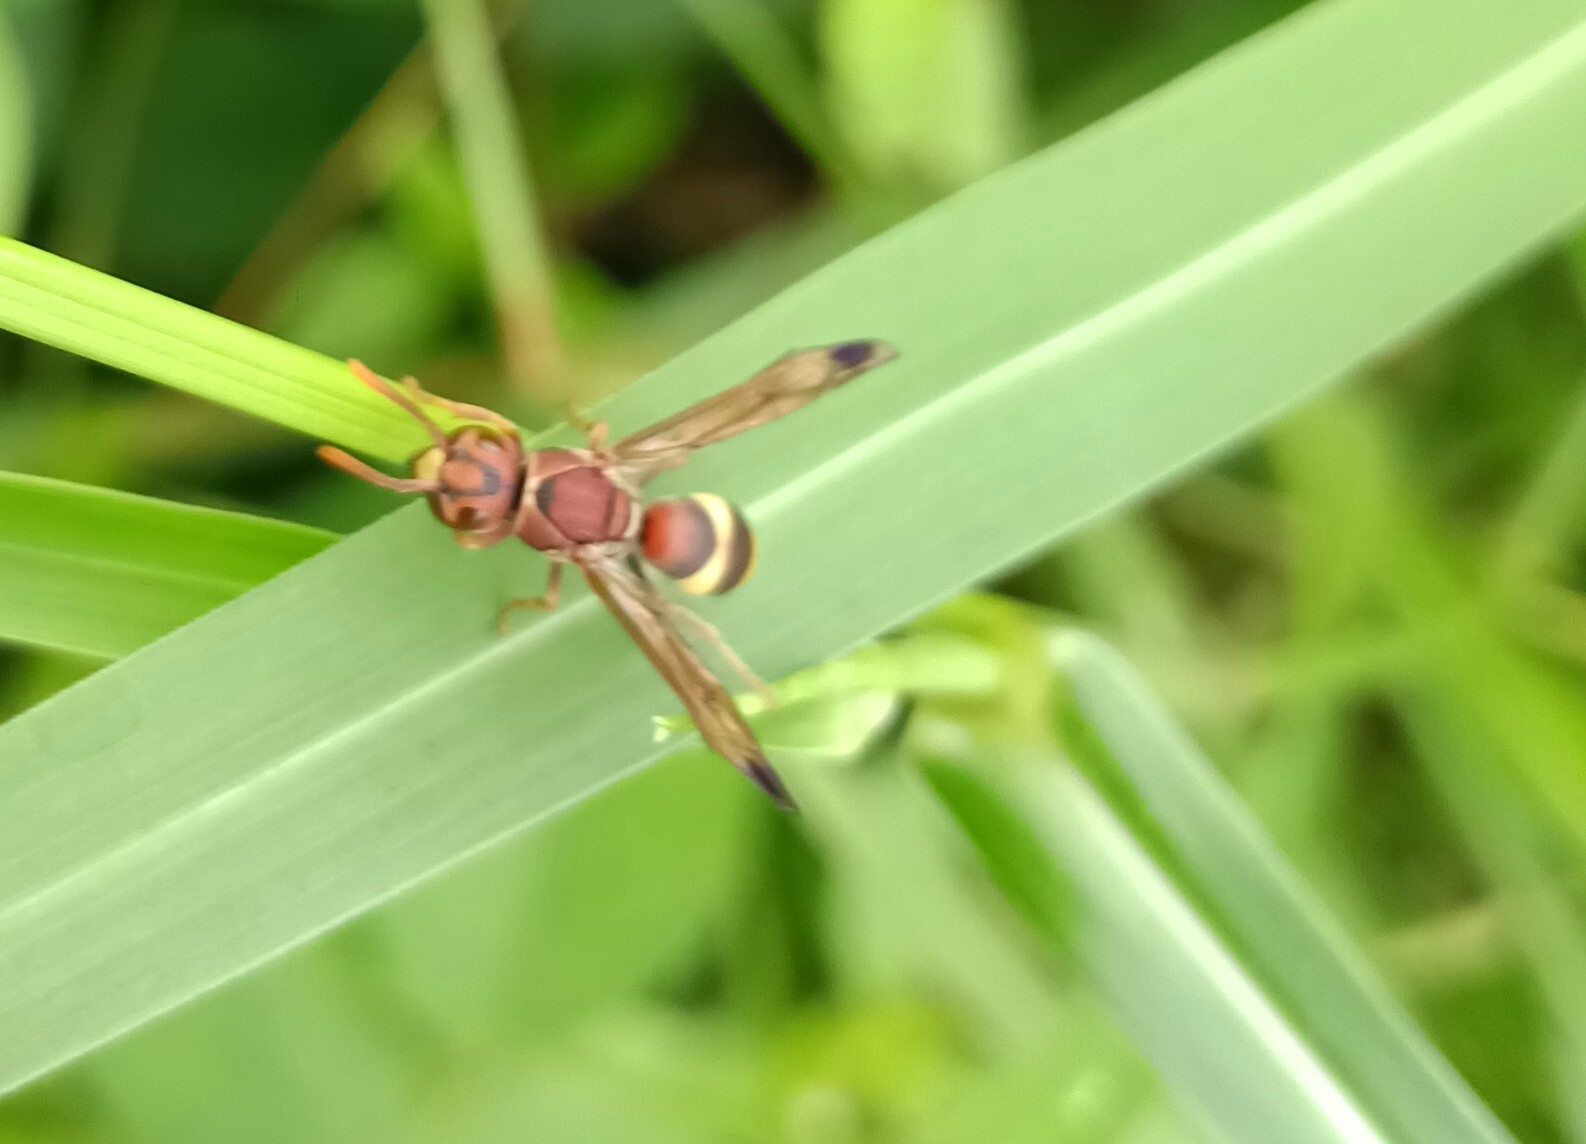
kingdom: Animalia
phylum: Arthropoda
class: Insecta
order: Hymenoptera
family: Eumenidae
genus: Antodynerus
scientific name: Antodynerus punctatipennis
